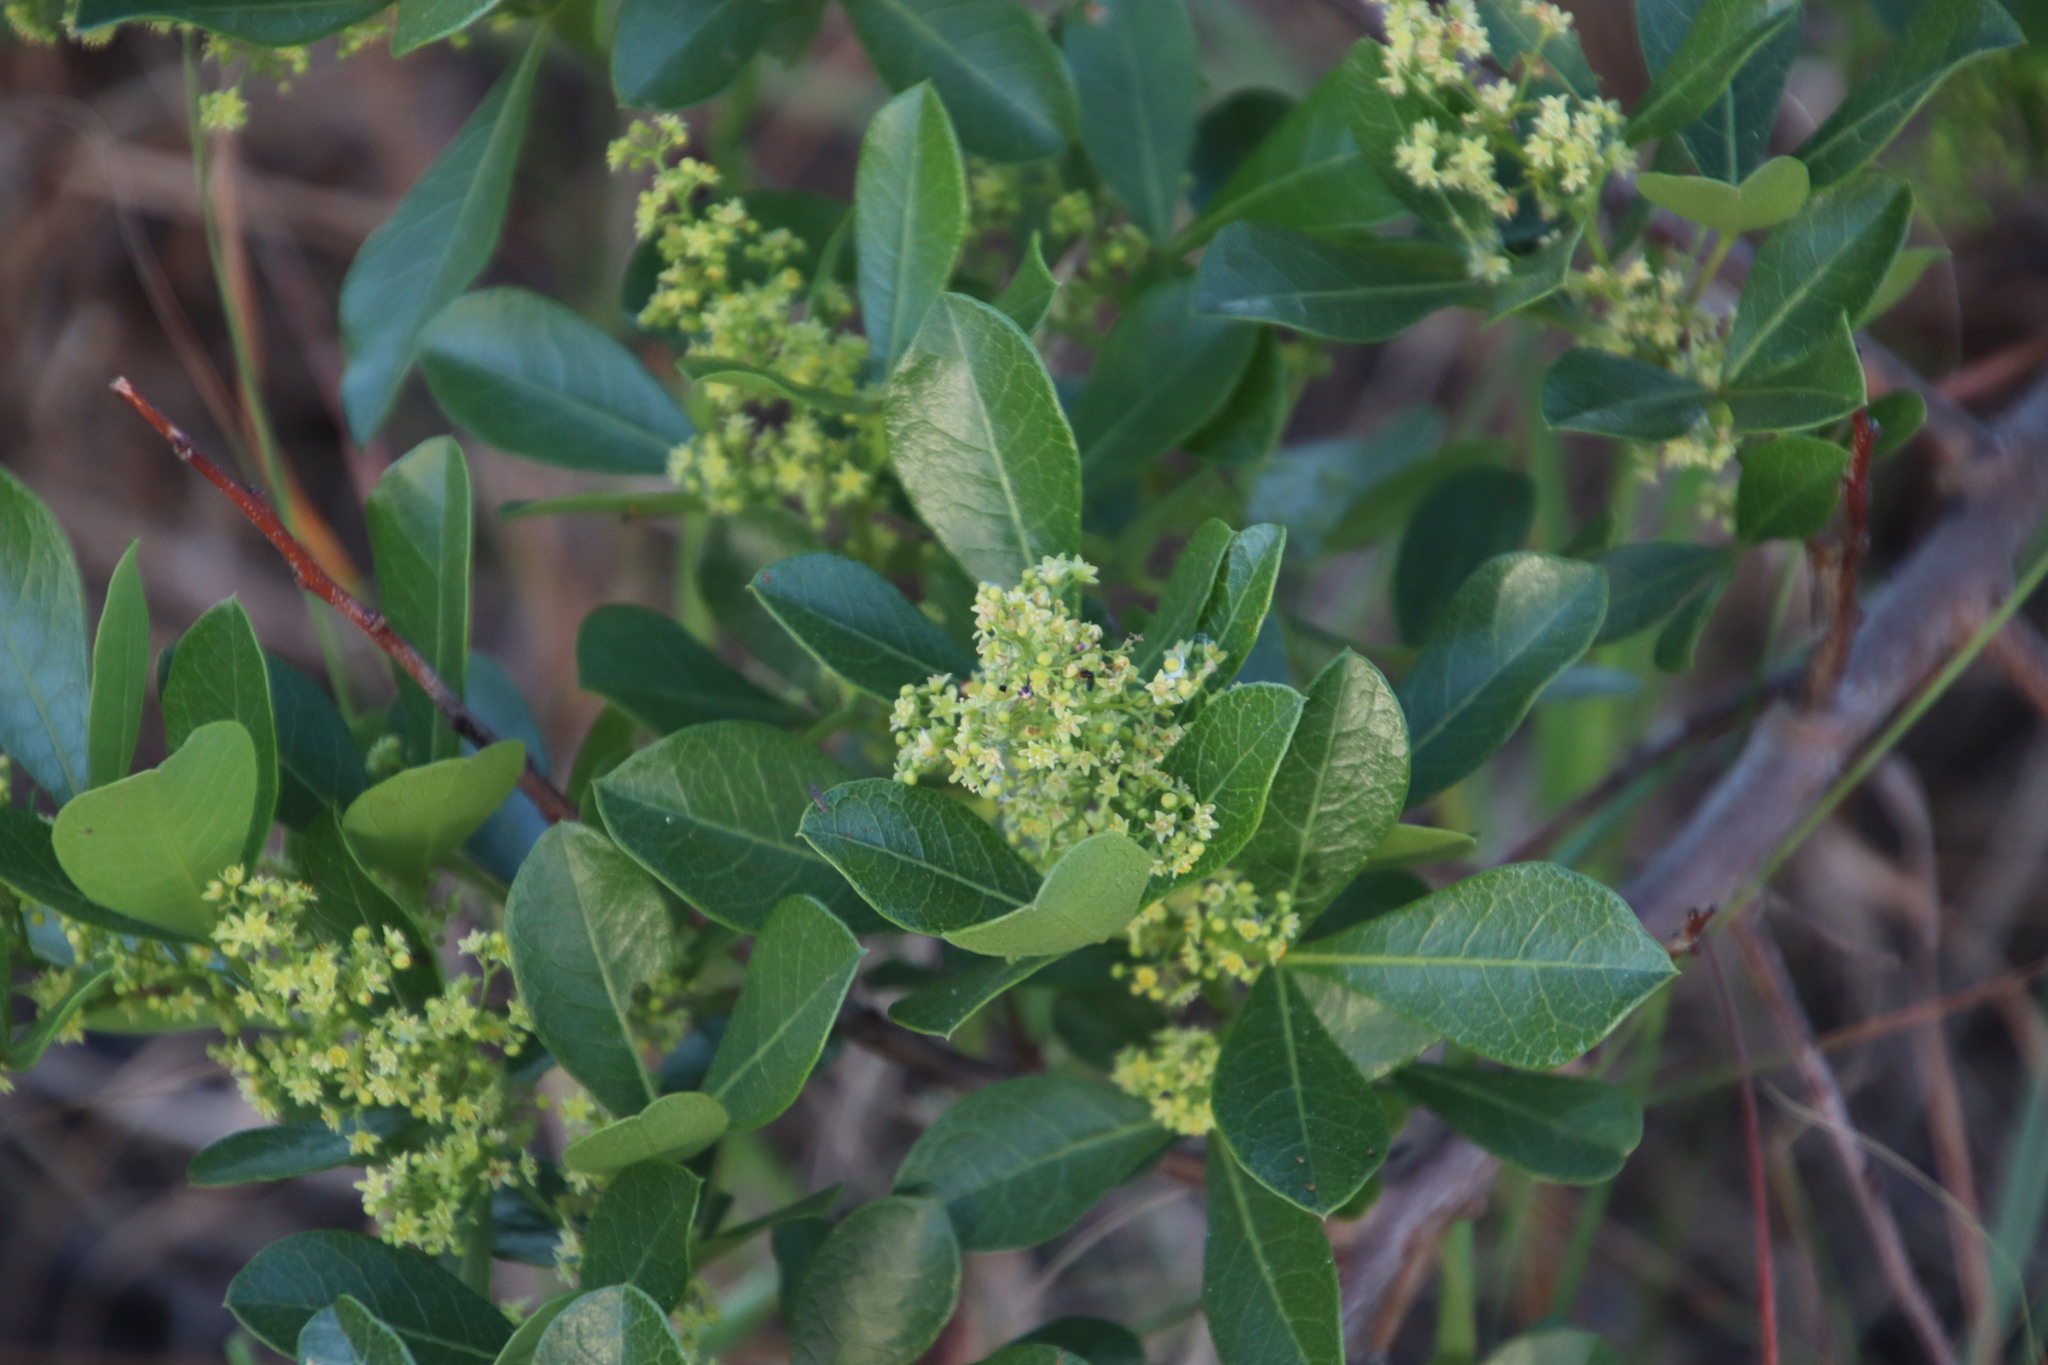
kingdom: Plantae
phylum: Tracheophyta
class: Magnoliopsida
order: Sapindales
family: Anacardiaceae
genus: Searsia
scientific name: Searsia laevigata
